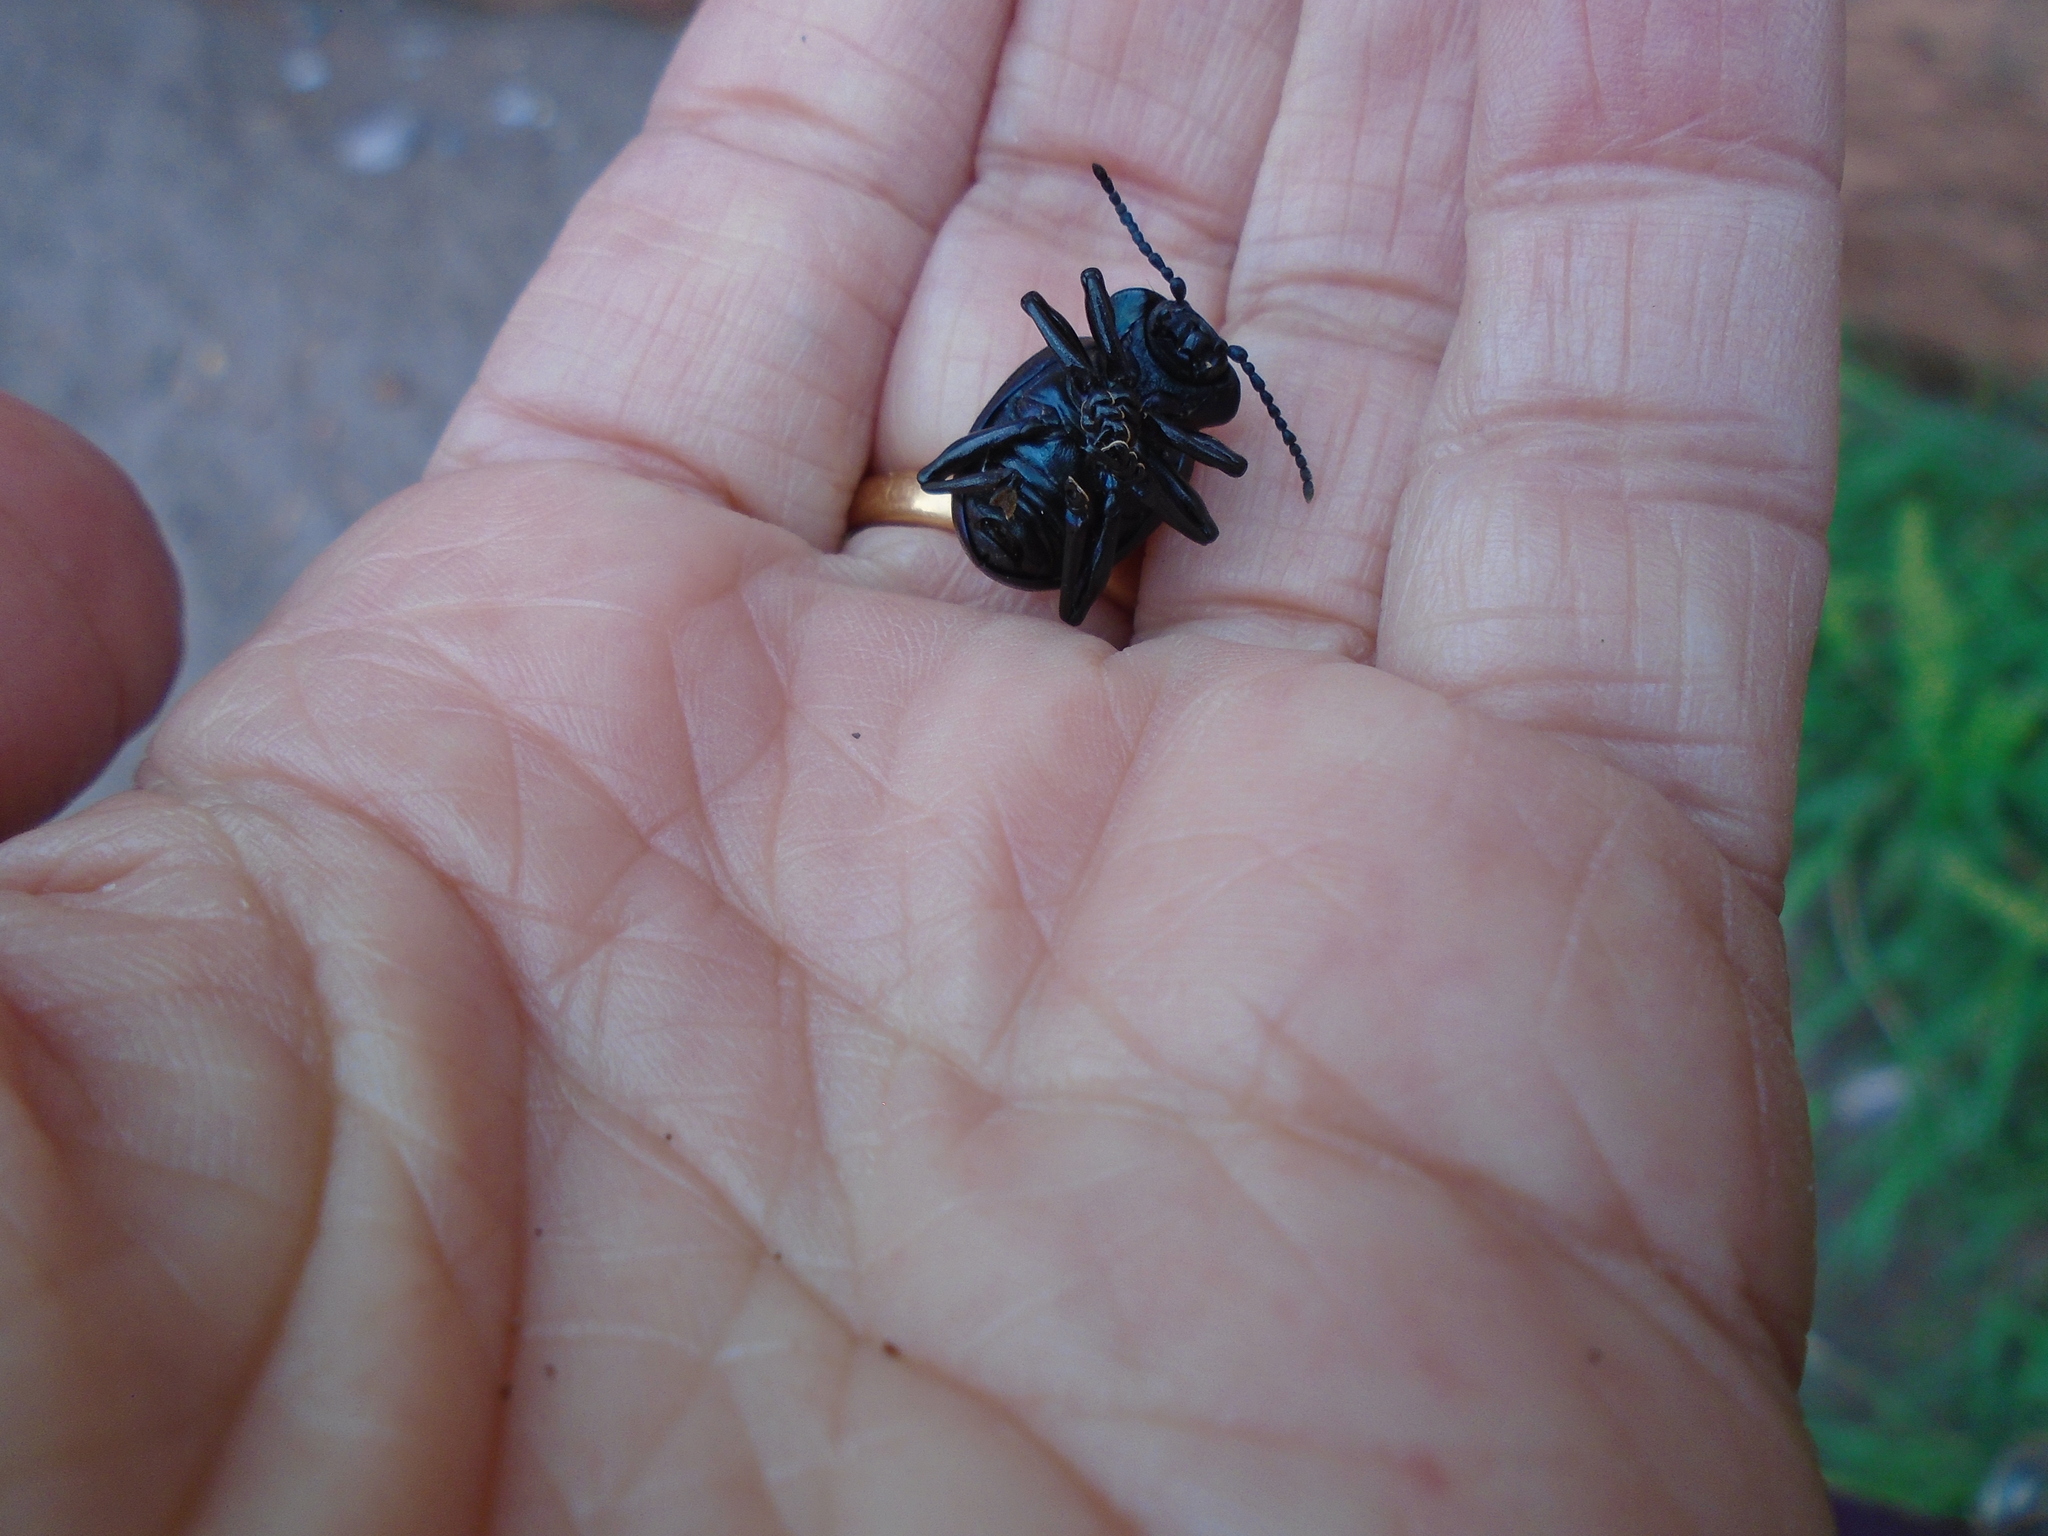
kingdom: Animalia
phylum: Arthropoda
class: Insecta
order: Coleoptera
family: Chrysomelidae
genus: Timarcha
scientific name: Timarcha tenebricosa
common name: Bloody-nosed beetle
